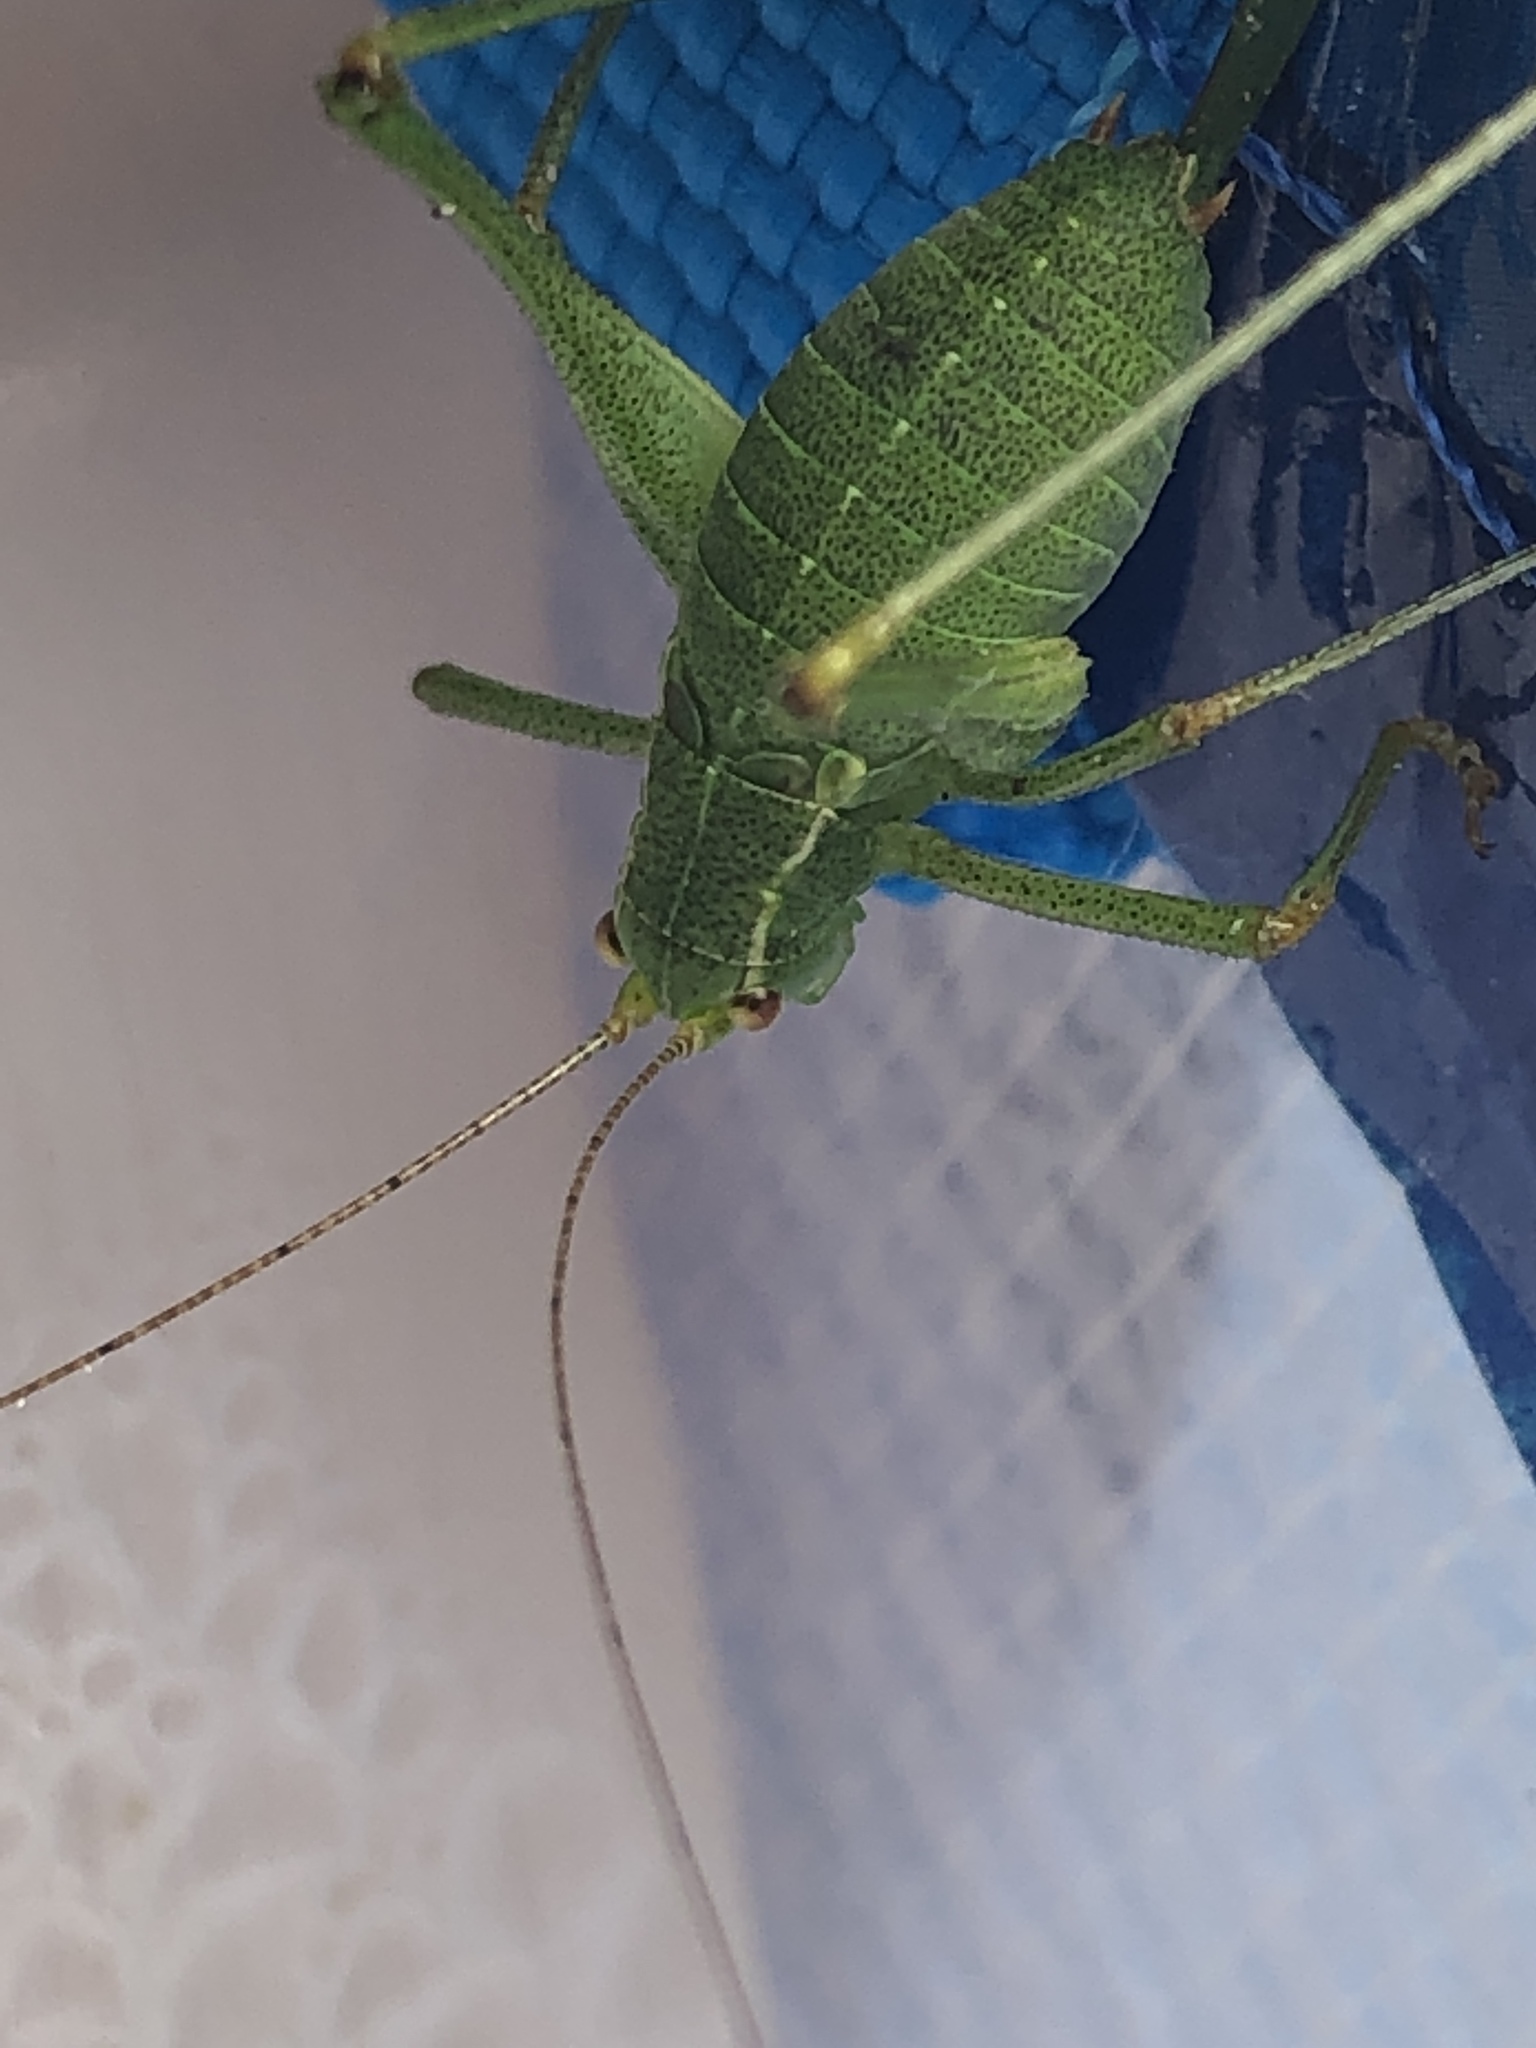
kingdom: Animalia
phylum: Arthropoda
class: Insecta
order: Orthoptera
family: Tettigoniidae
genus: Leptophyes
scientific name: Leptophyes punctatissima
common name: Speckled bush-cricket
